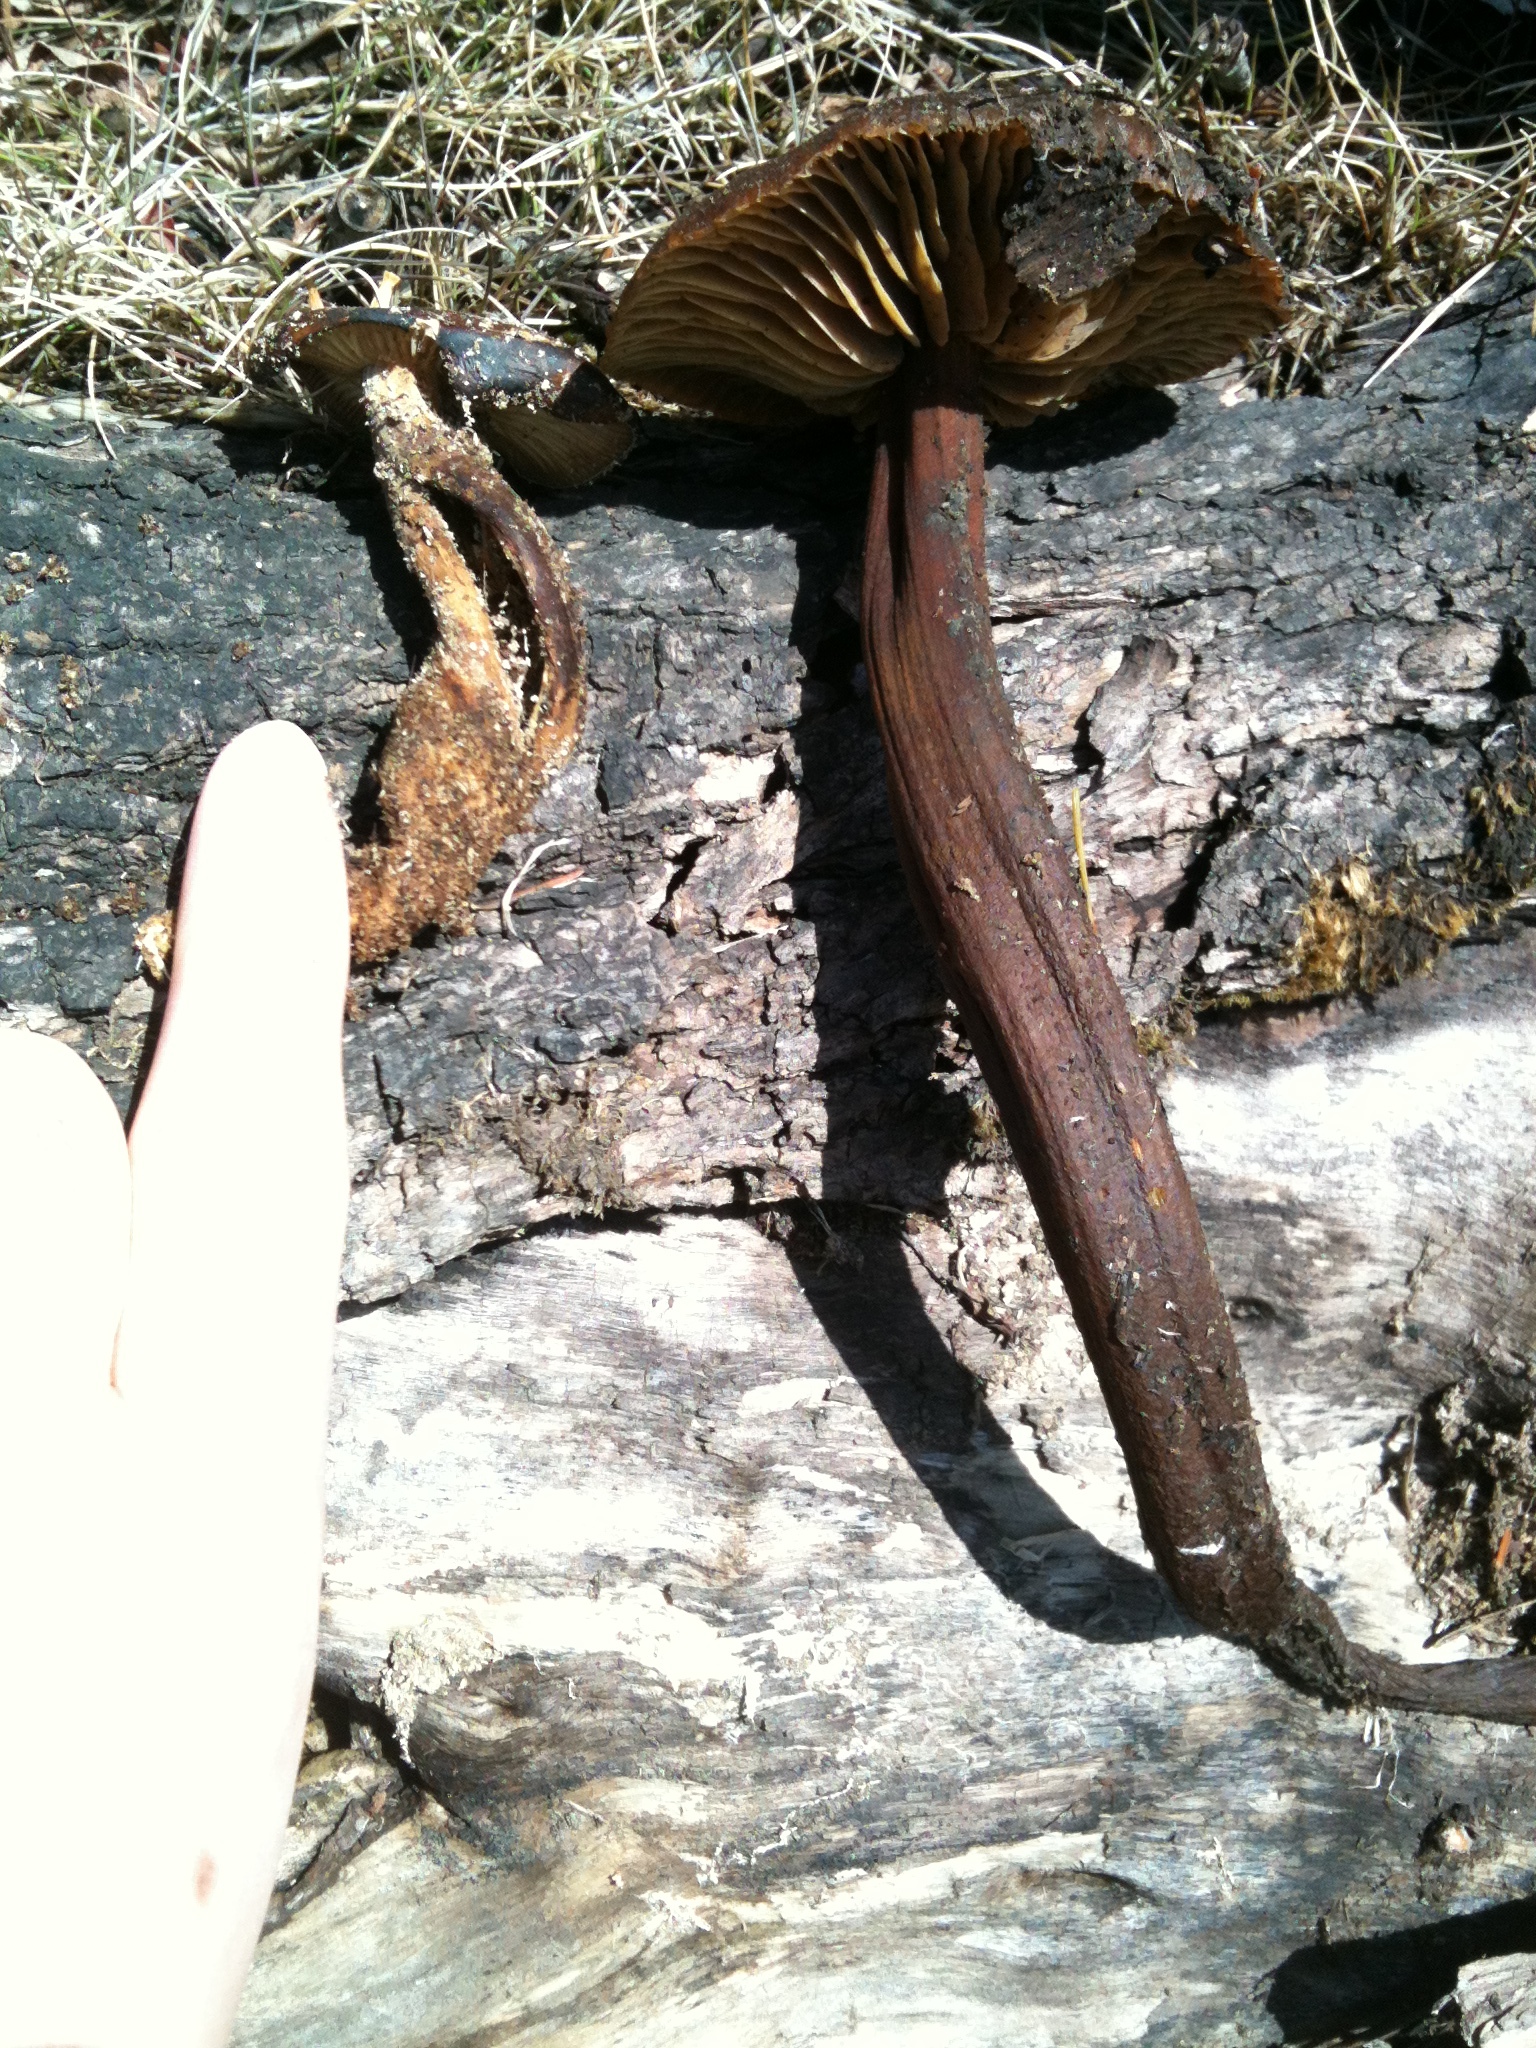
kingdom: Fungi
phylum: Basidiomycota
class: Agaricomycetes
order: Agaricales
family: Physalacriaceae
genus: Flammulina
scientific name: Flammulina velutipes
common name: Velvet shank
